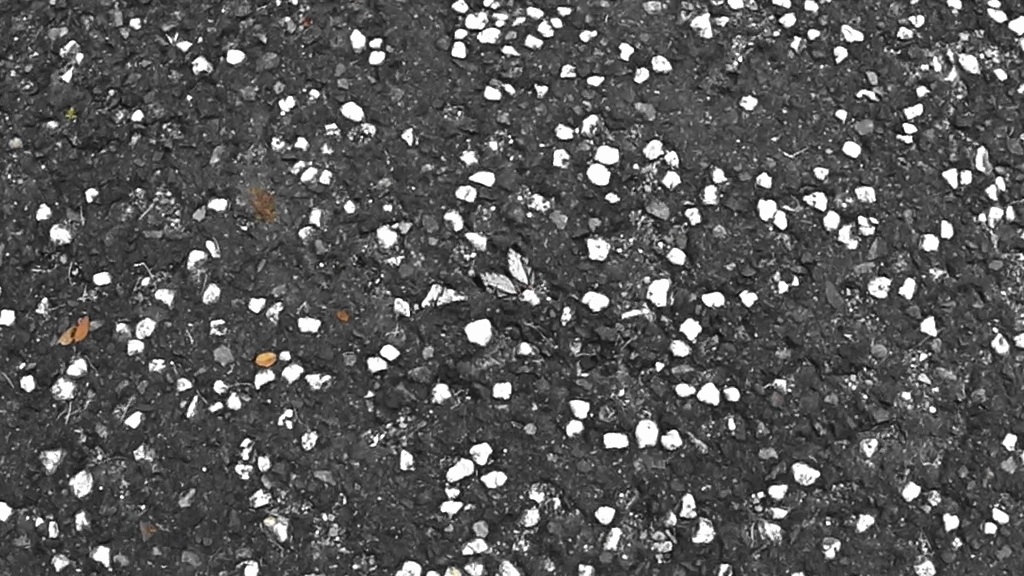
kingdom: Animalia
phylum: Arthropoda
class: Insecta
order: Lepidoptera
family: Nymphalidae
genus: Cyrestis
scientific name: Cyrestis thyodamas
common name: Common mapwing
